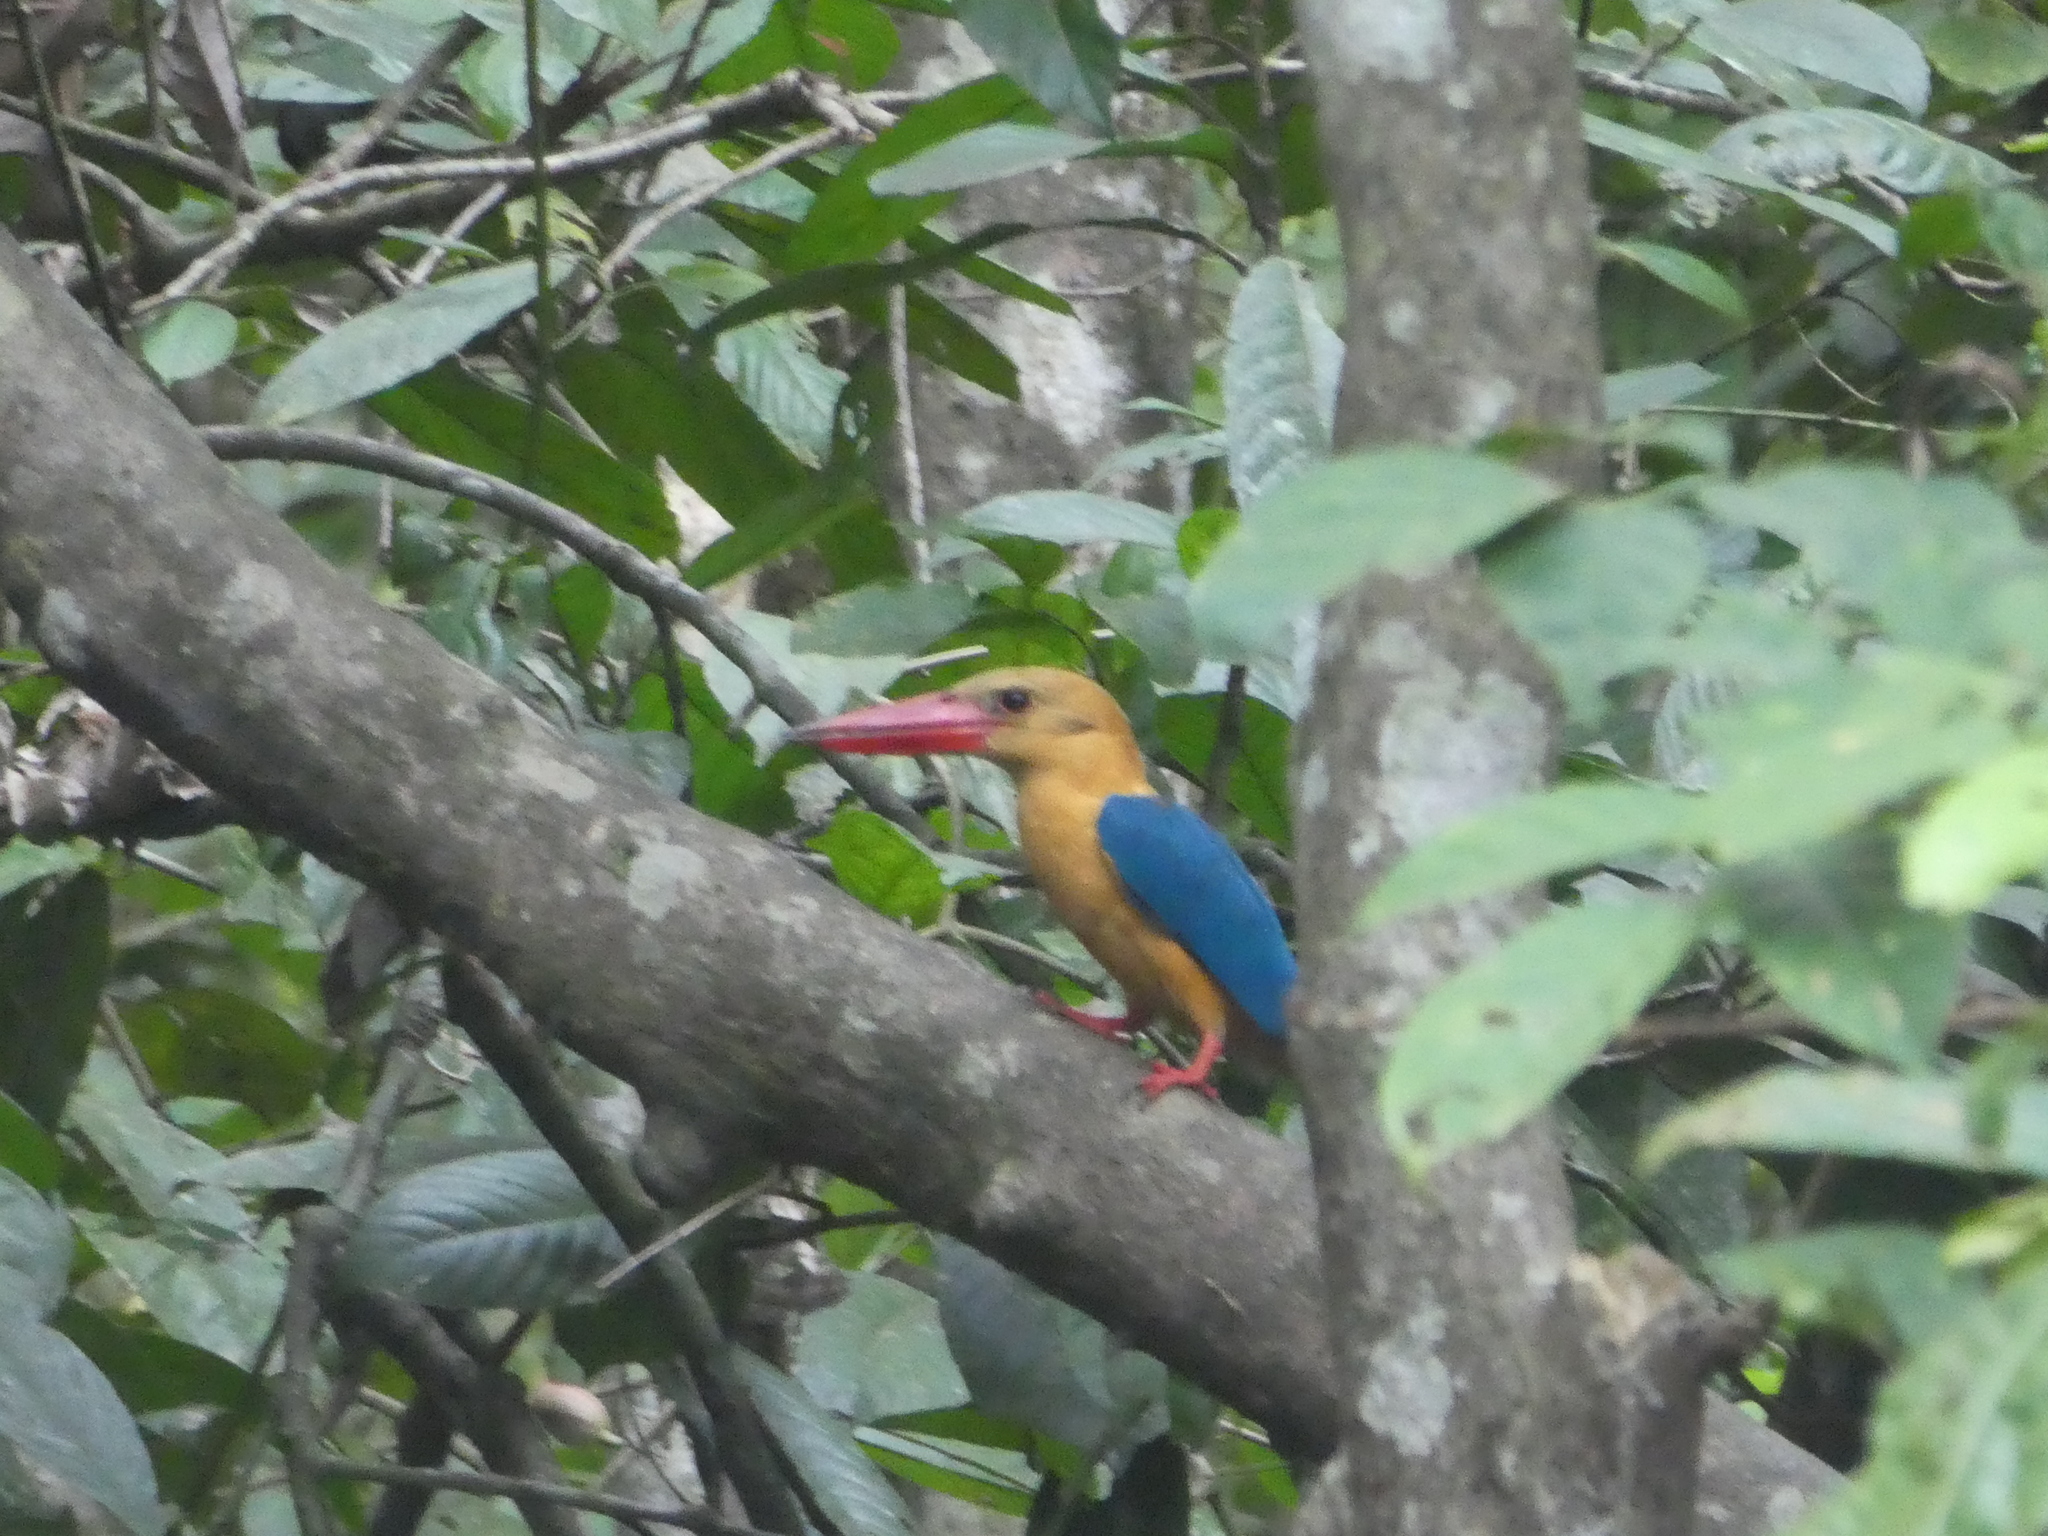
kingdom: Animalia
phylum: Chordata
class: Aves
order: Coraciiformes
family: Alcedinidae
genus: Pelargopsis
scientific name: Pelargopsis capensis
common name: Stork-billed kingfisher
